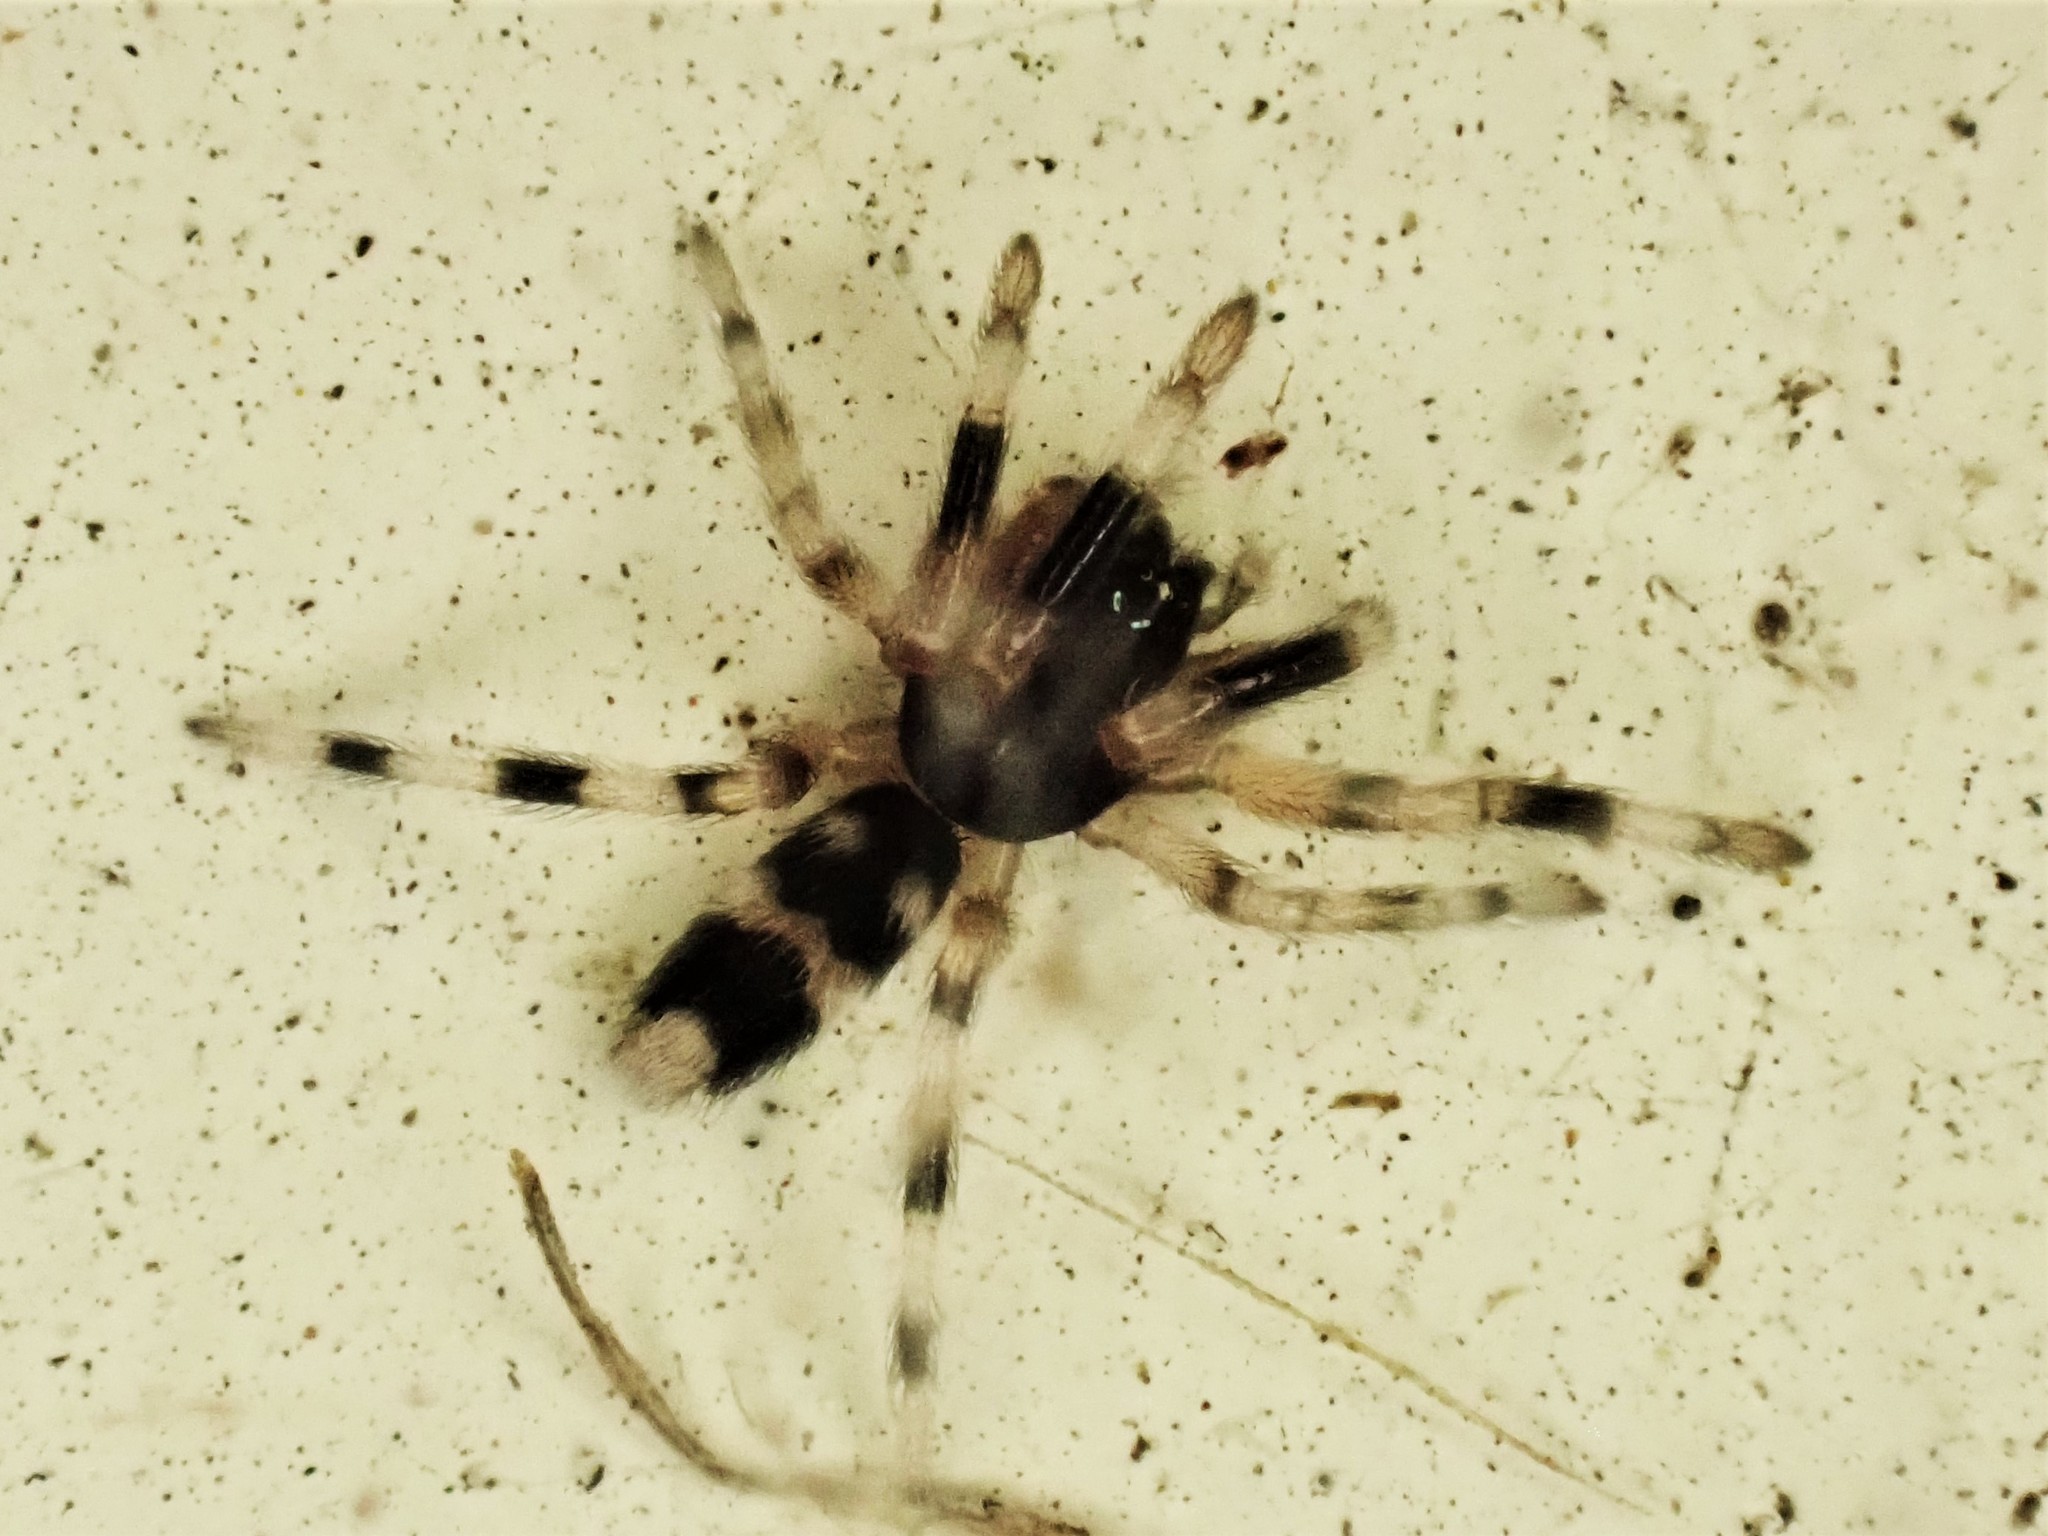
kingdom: Animalia
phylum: Arthropoda
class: Arachnida
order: Araneae
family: Lamponidae
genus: Lampona
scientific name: Lampona murina
